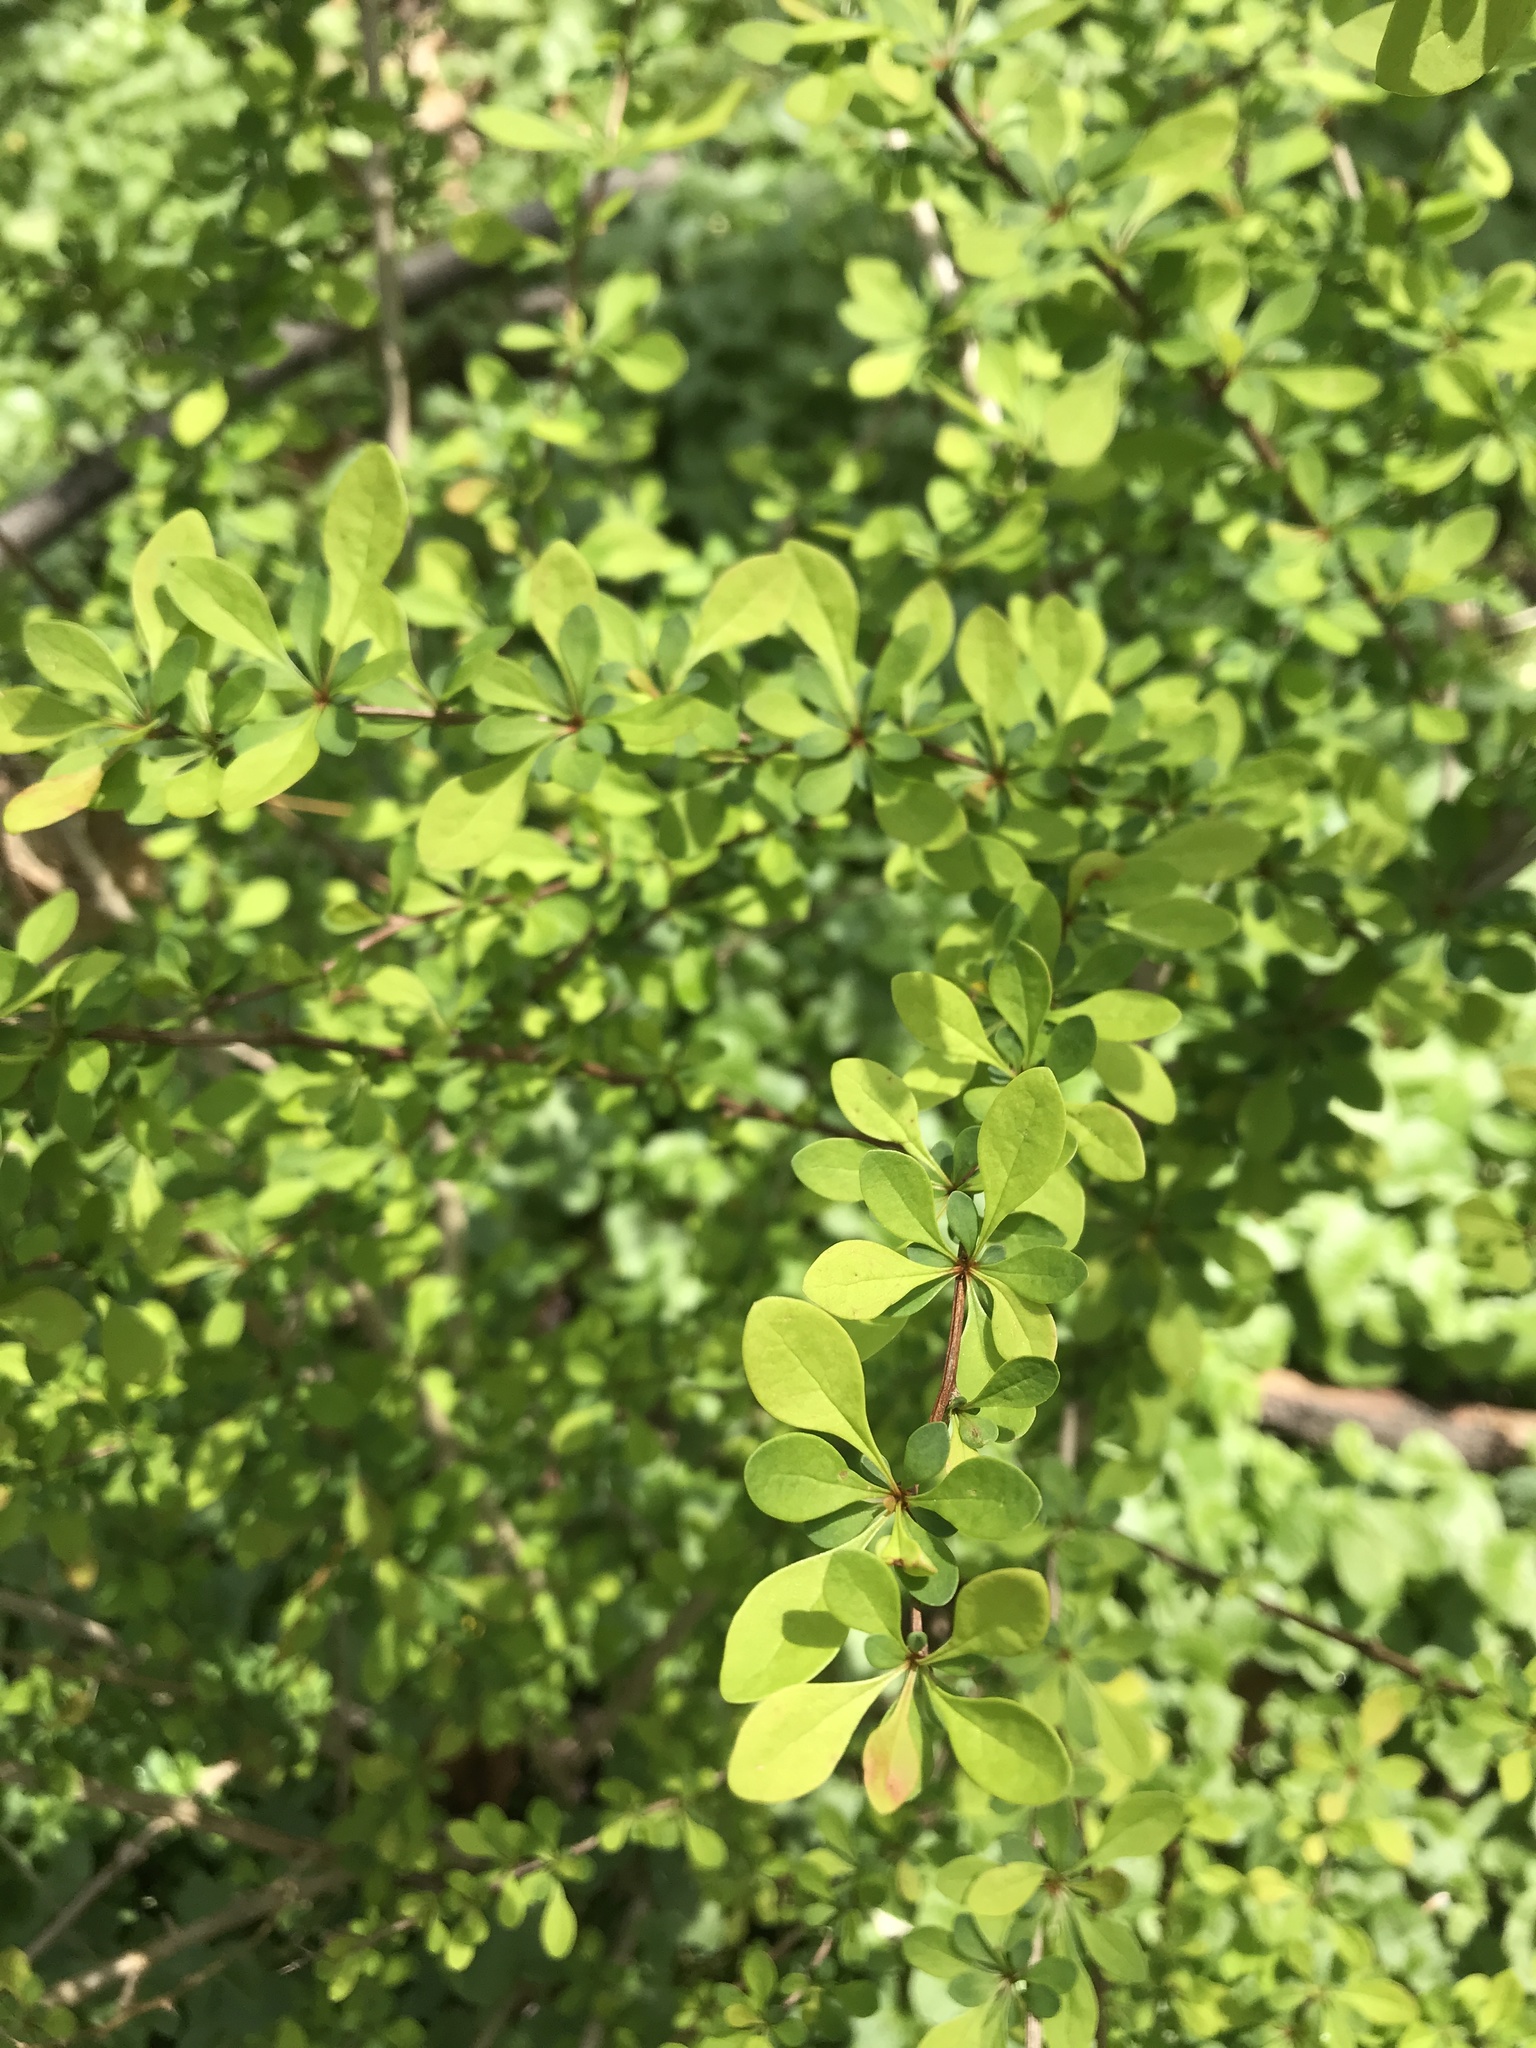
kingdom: Plantae
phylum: Tracheophyta
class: Magnoliopsida
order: Ranunculales
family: Berberidaceae
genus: Berberis
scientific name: Berberis thunbergii
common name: Japanese barberry
